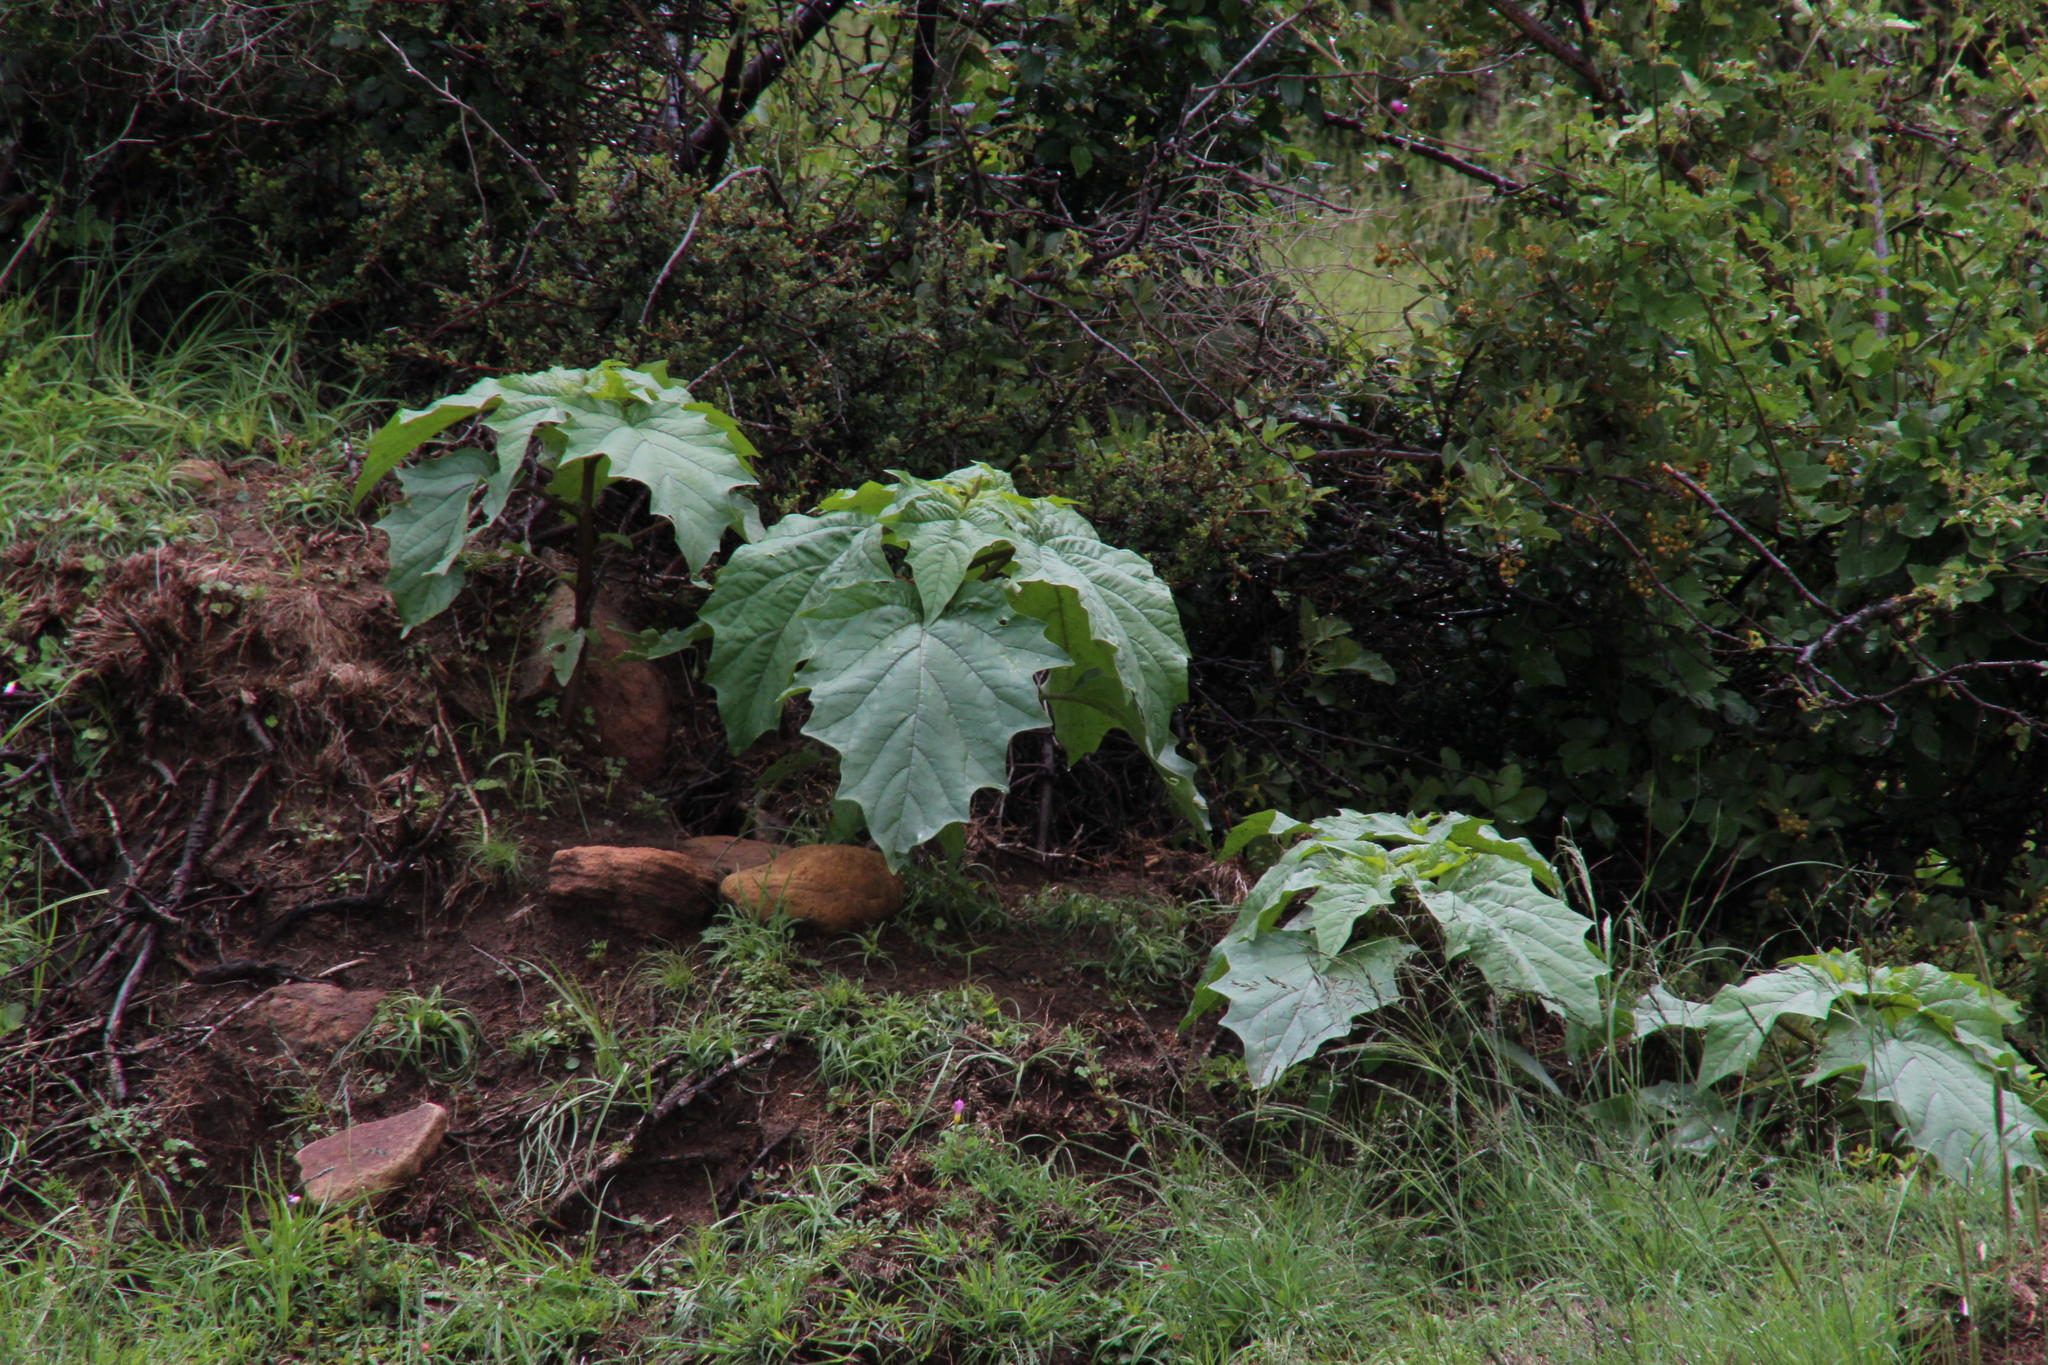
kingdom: Plantae
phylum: Tracheophyta
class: Magnoliopsida
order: Solanales
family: Solanaceae
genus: Datura
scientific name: Datura stramonium
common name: Thorn-apple
